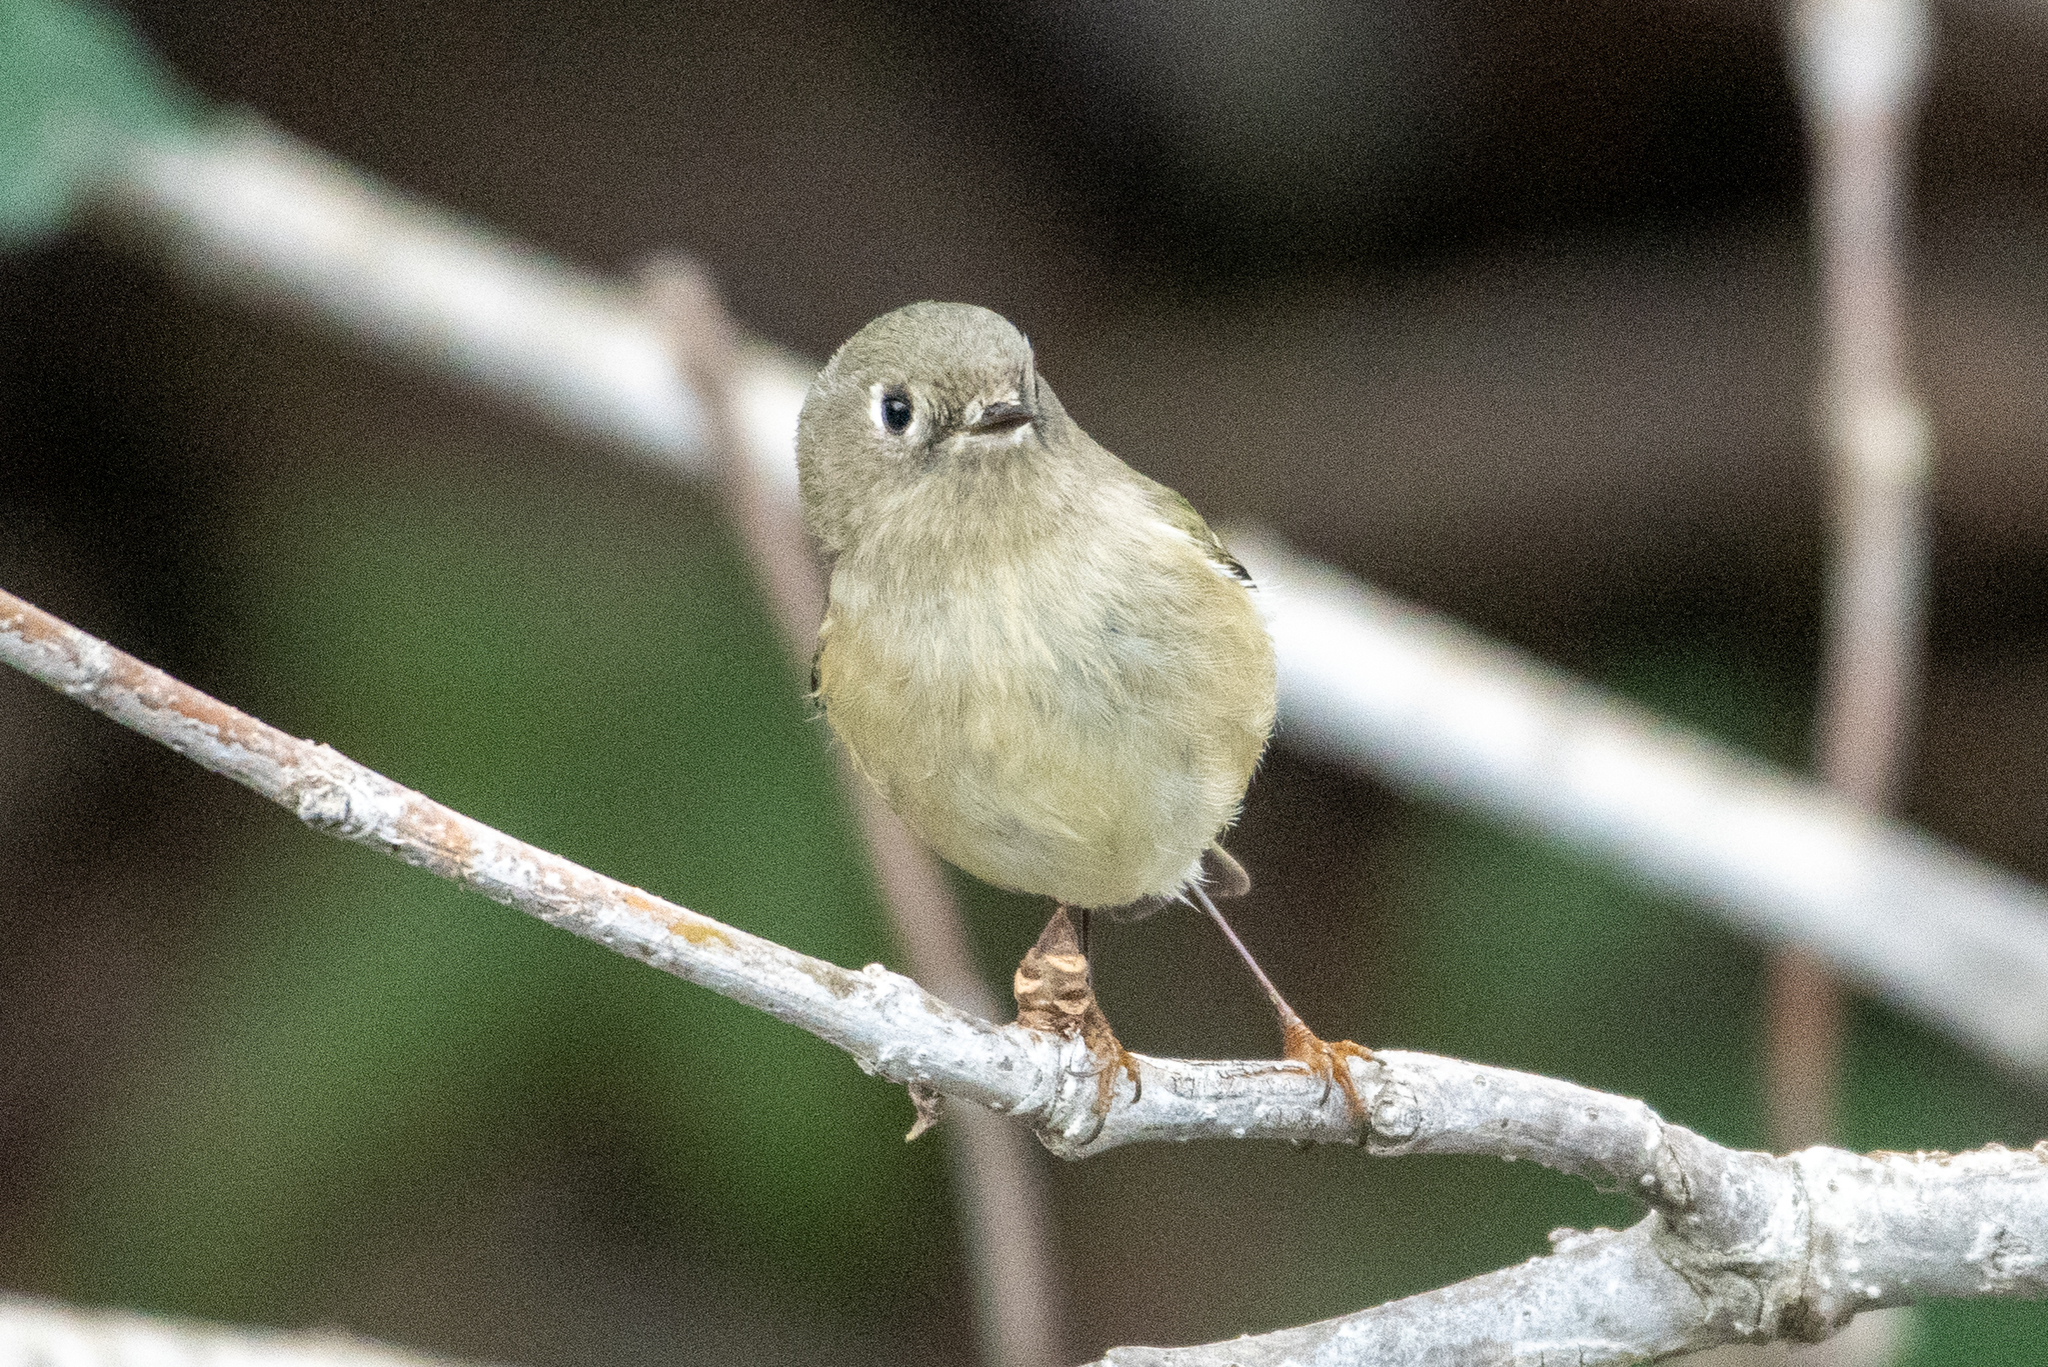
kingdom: Animalia
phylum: Chordata
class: Aves
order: Passeriformes
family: Regulidae
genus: Regulus
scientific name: Regulus calendula
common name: Ruby-crowned kinglet
